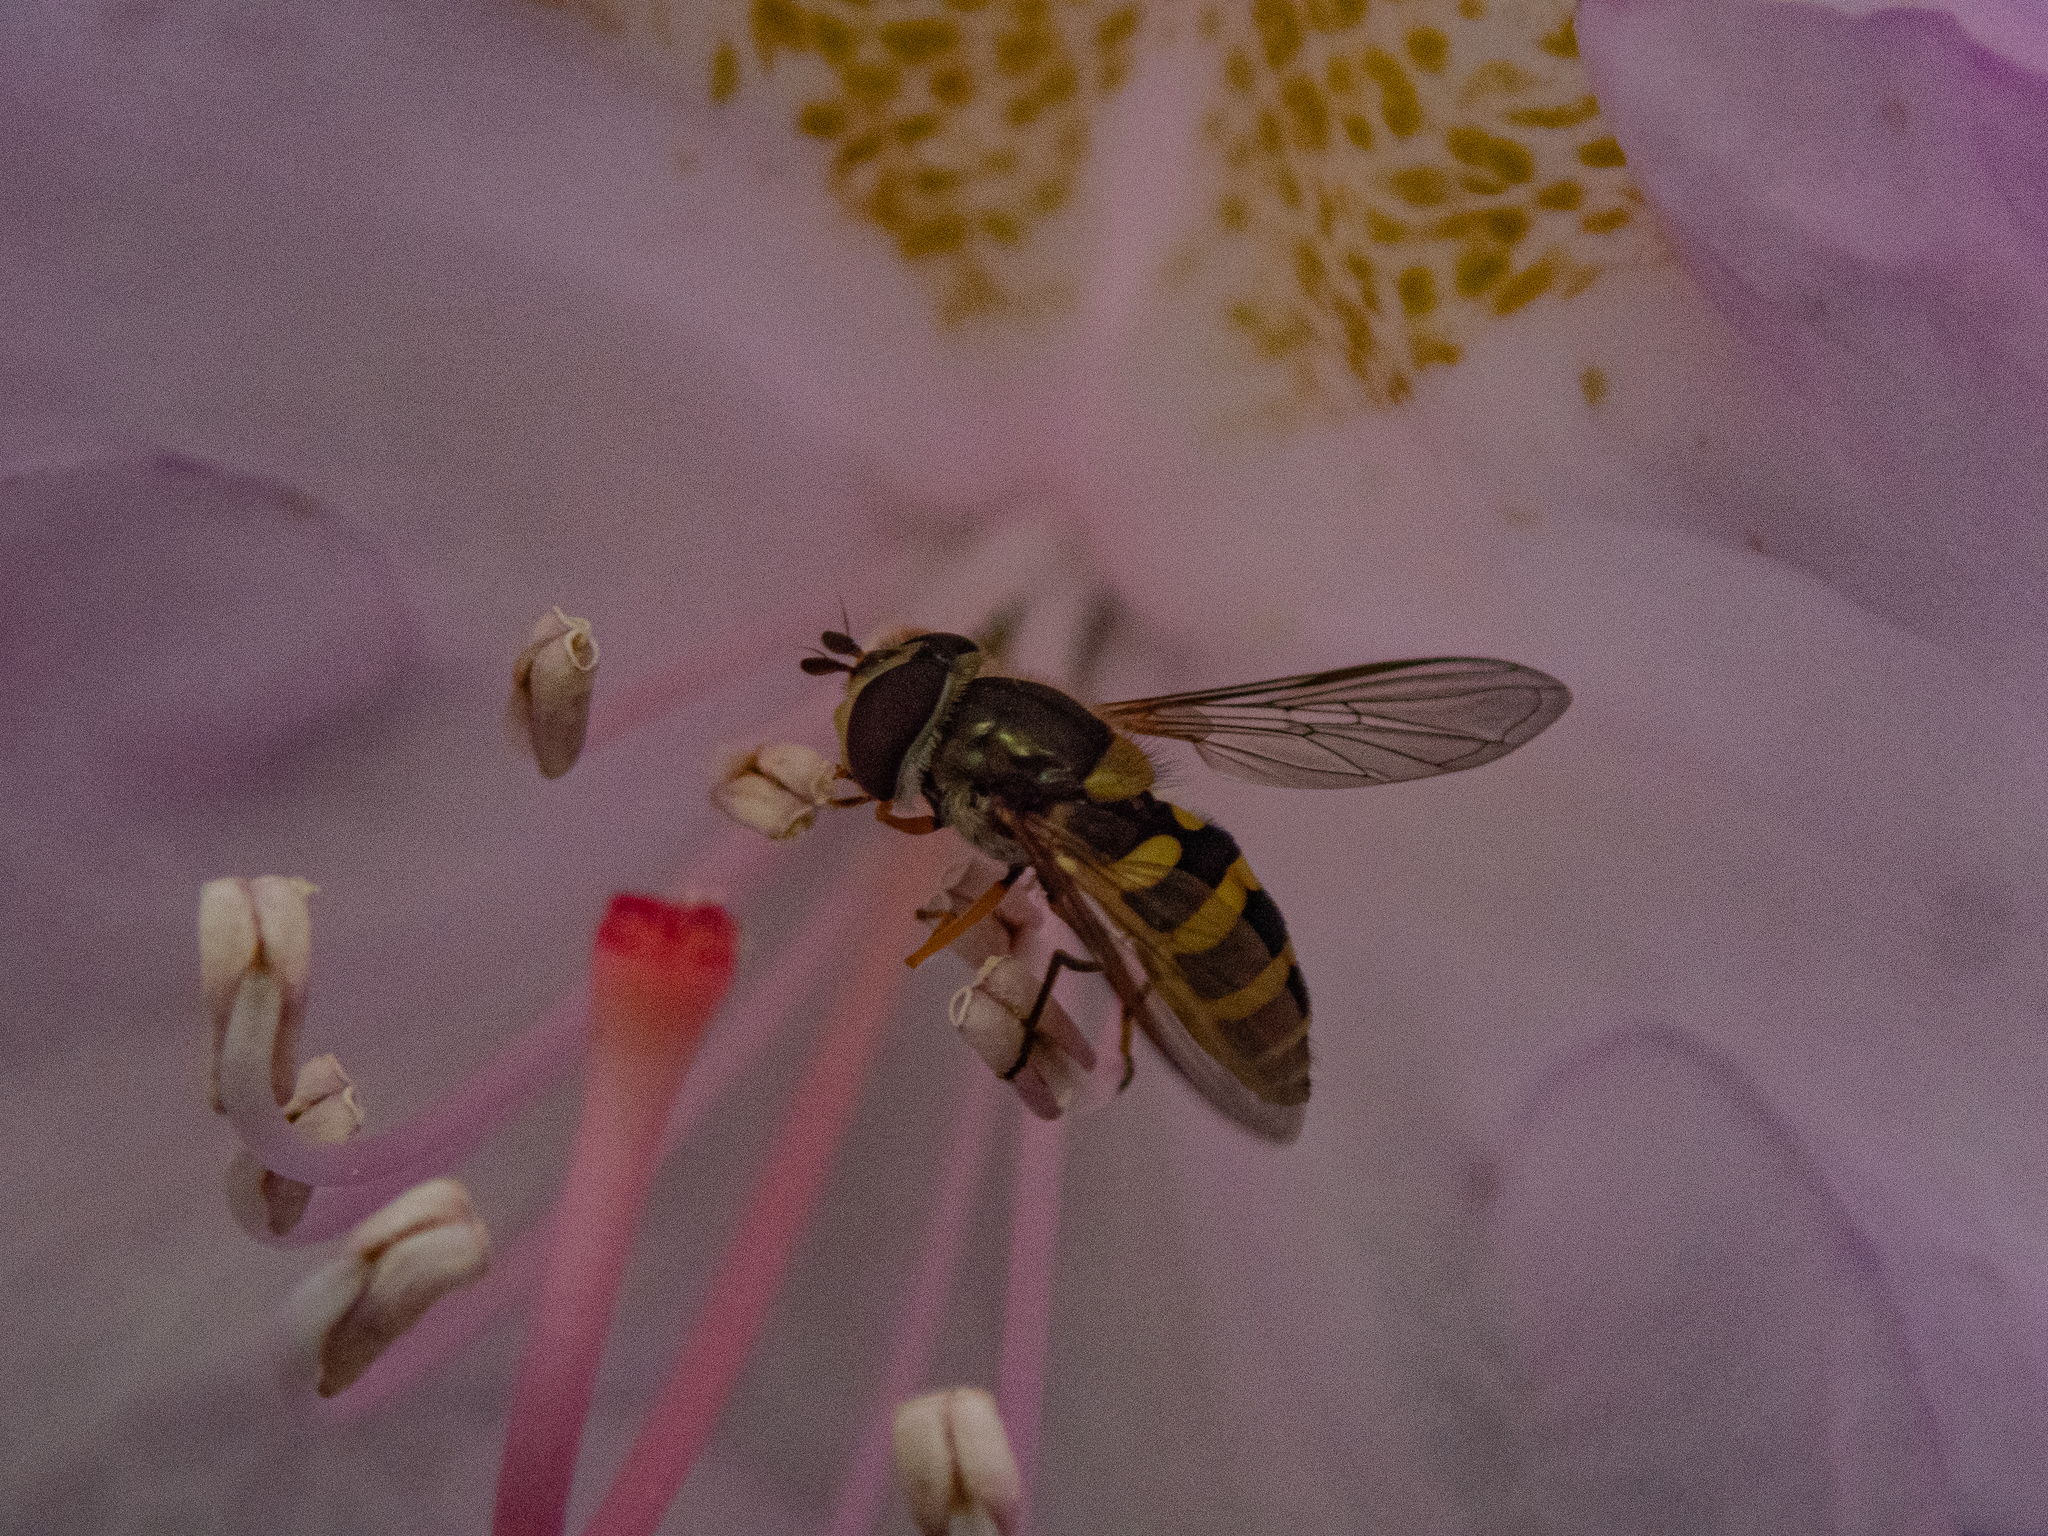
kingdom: Animalia
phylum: Arthropoda
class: Insecta
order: Diptera
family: Syrphidae
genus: Syrphus
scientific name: Syrphus
